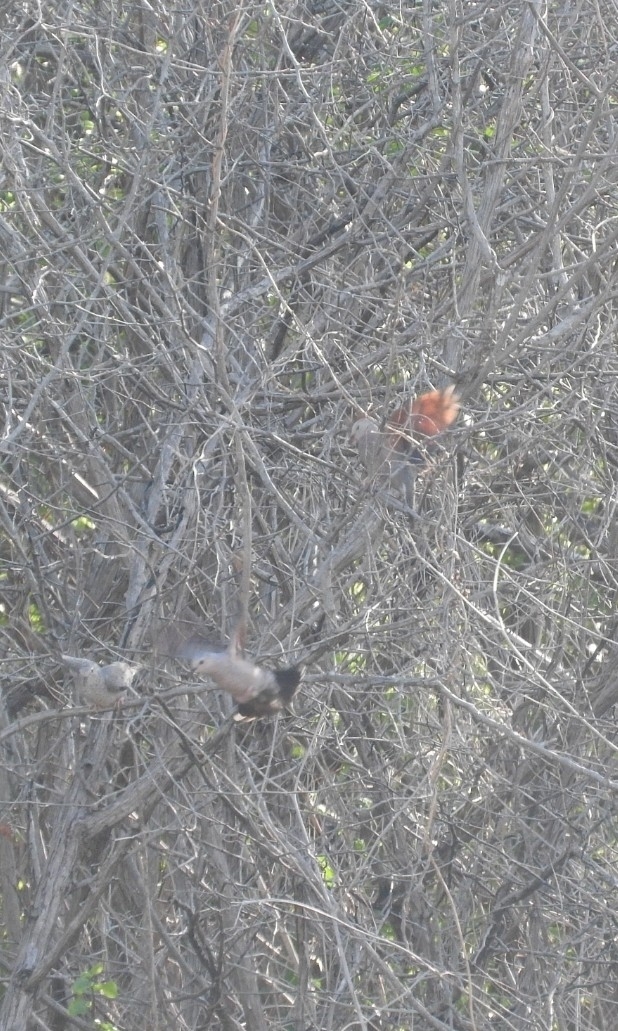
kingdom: Animalia
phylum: Chordata
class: Aves
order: Columbiformes
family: Columbidae
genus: Columbina
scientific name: Columbina passerina
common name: Common ground-dove
